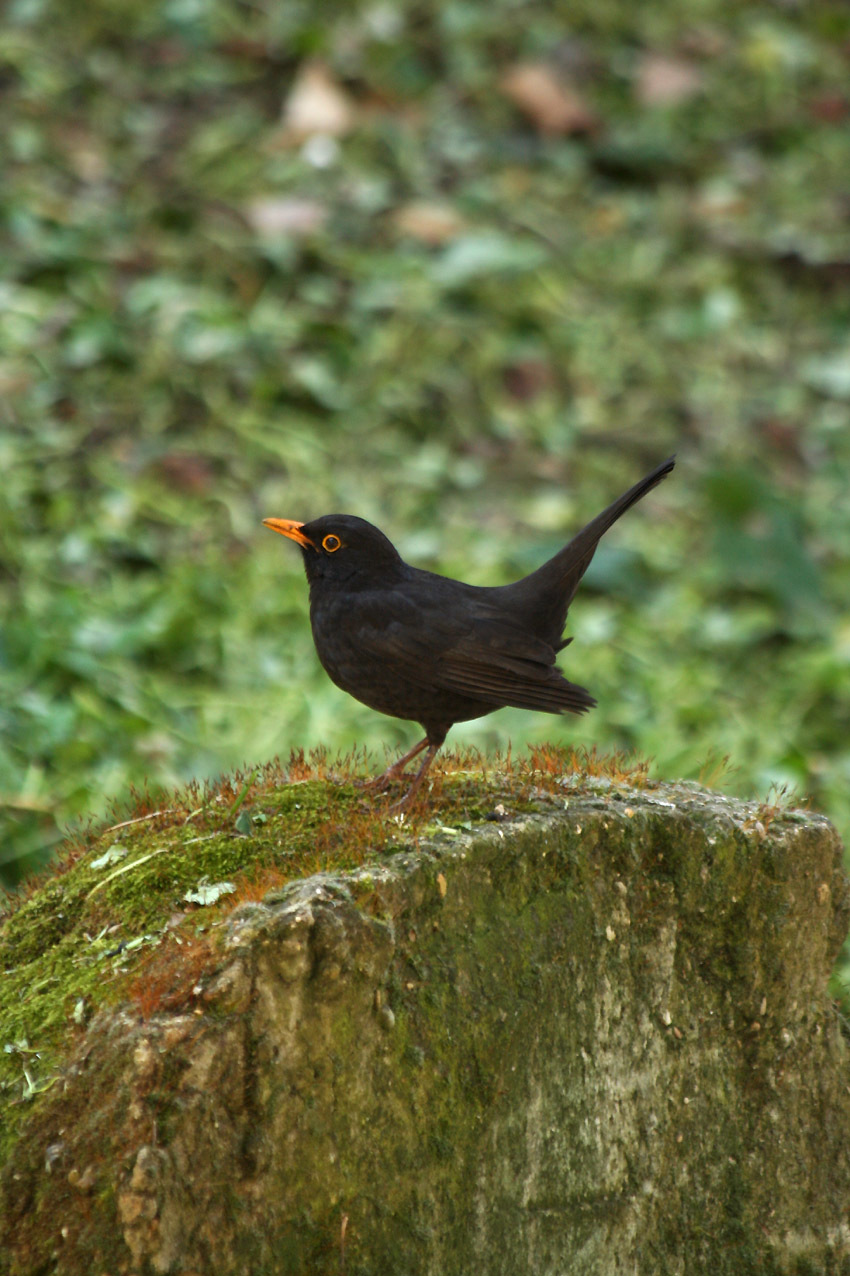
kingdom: Animalia
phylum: Chordata
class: Aves
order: Passeriformes
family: Turdidae
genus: Turdus
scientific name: Turdus merula
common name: Common blackbird
